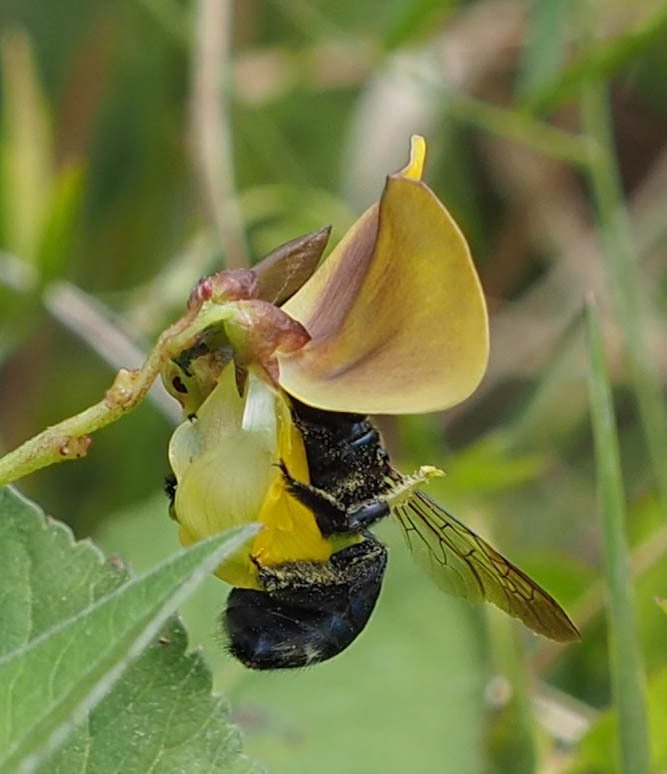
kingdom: Animalia
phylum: Arthropoda
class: Insecta
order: Hymenoptera
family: Apidae
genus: Xylocopa
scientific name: Xylocopa micans
